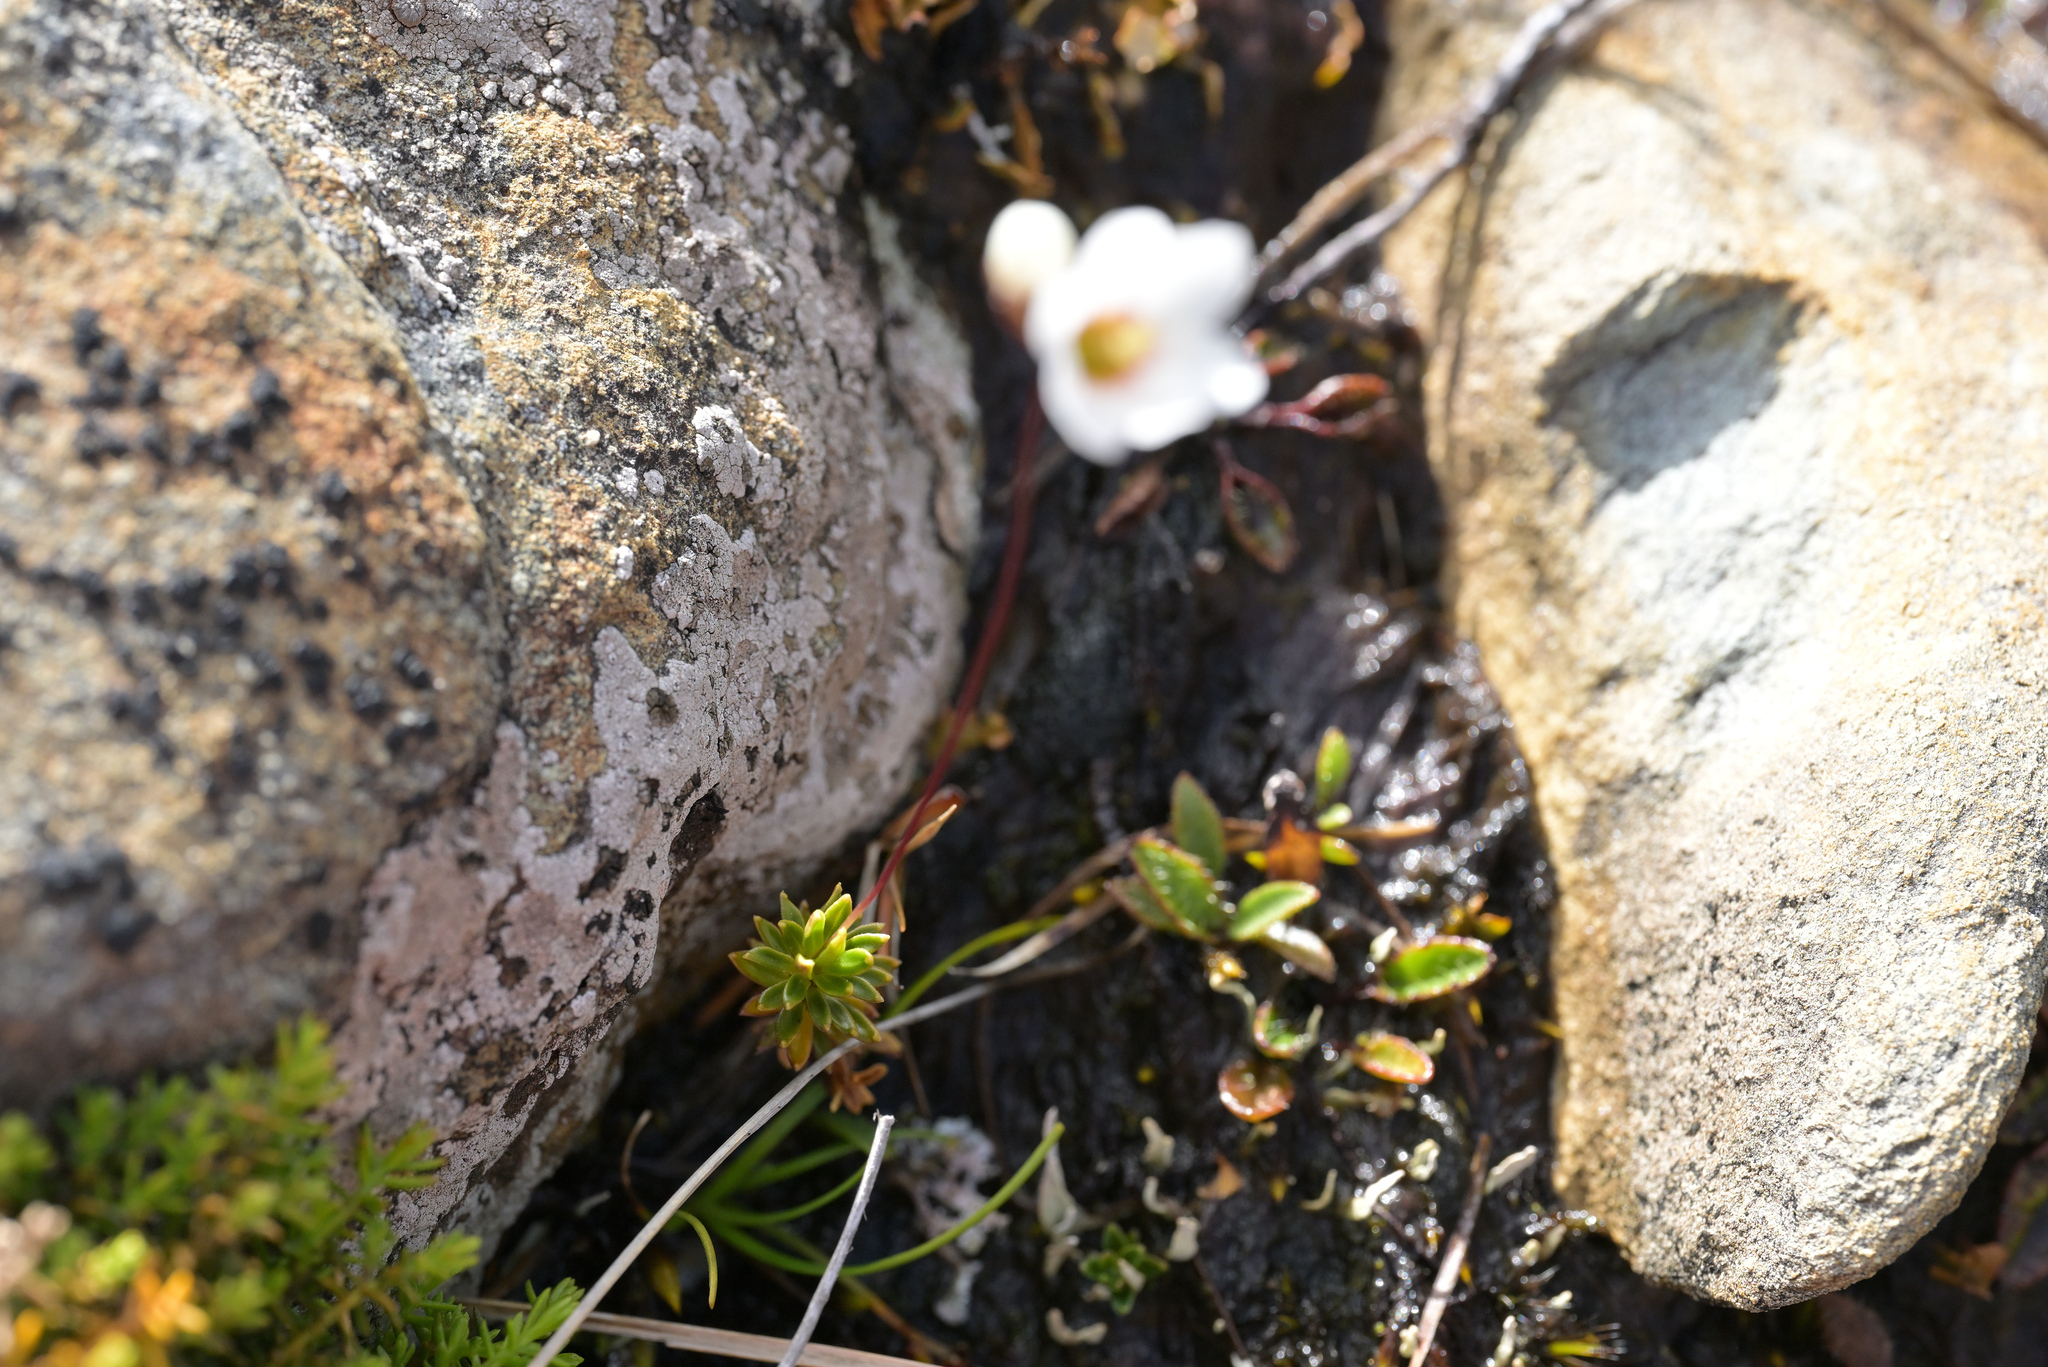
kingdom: Plantae
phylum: Tracheophyta
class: Magnoliopsida
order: Asterales
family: Stylidiaceae
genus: Forstera
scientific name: Forstera mackayi
